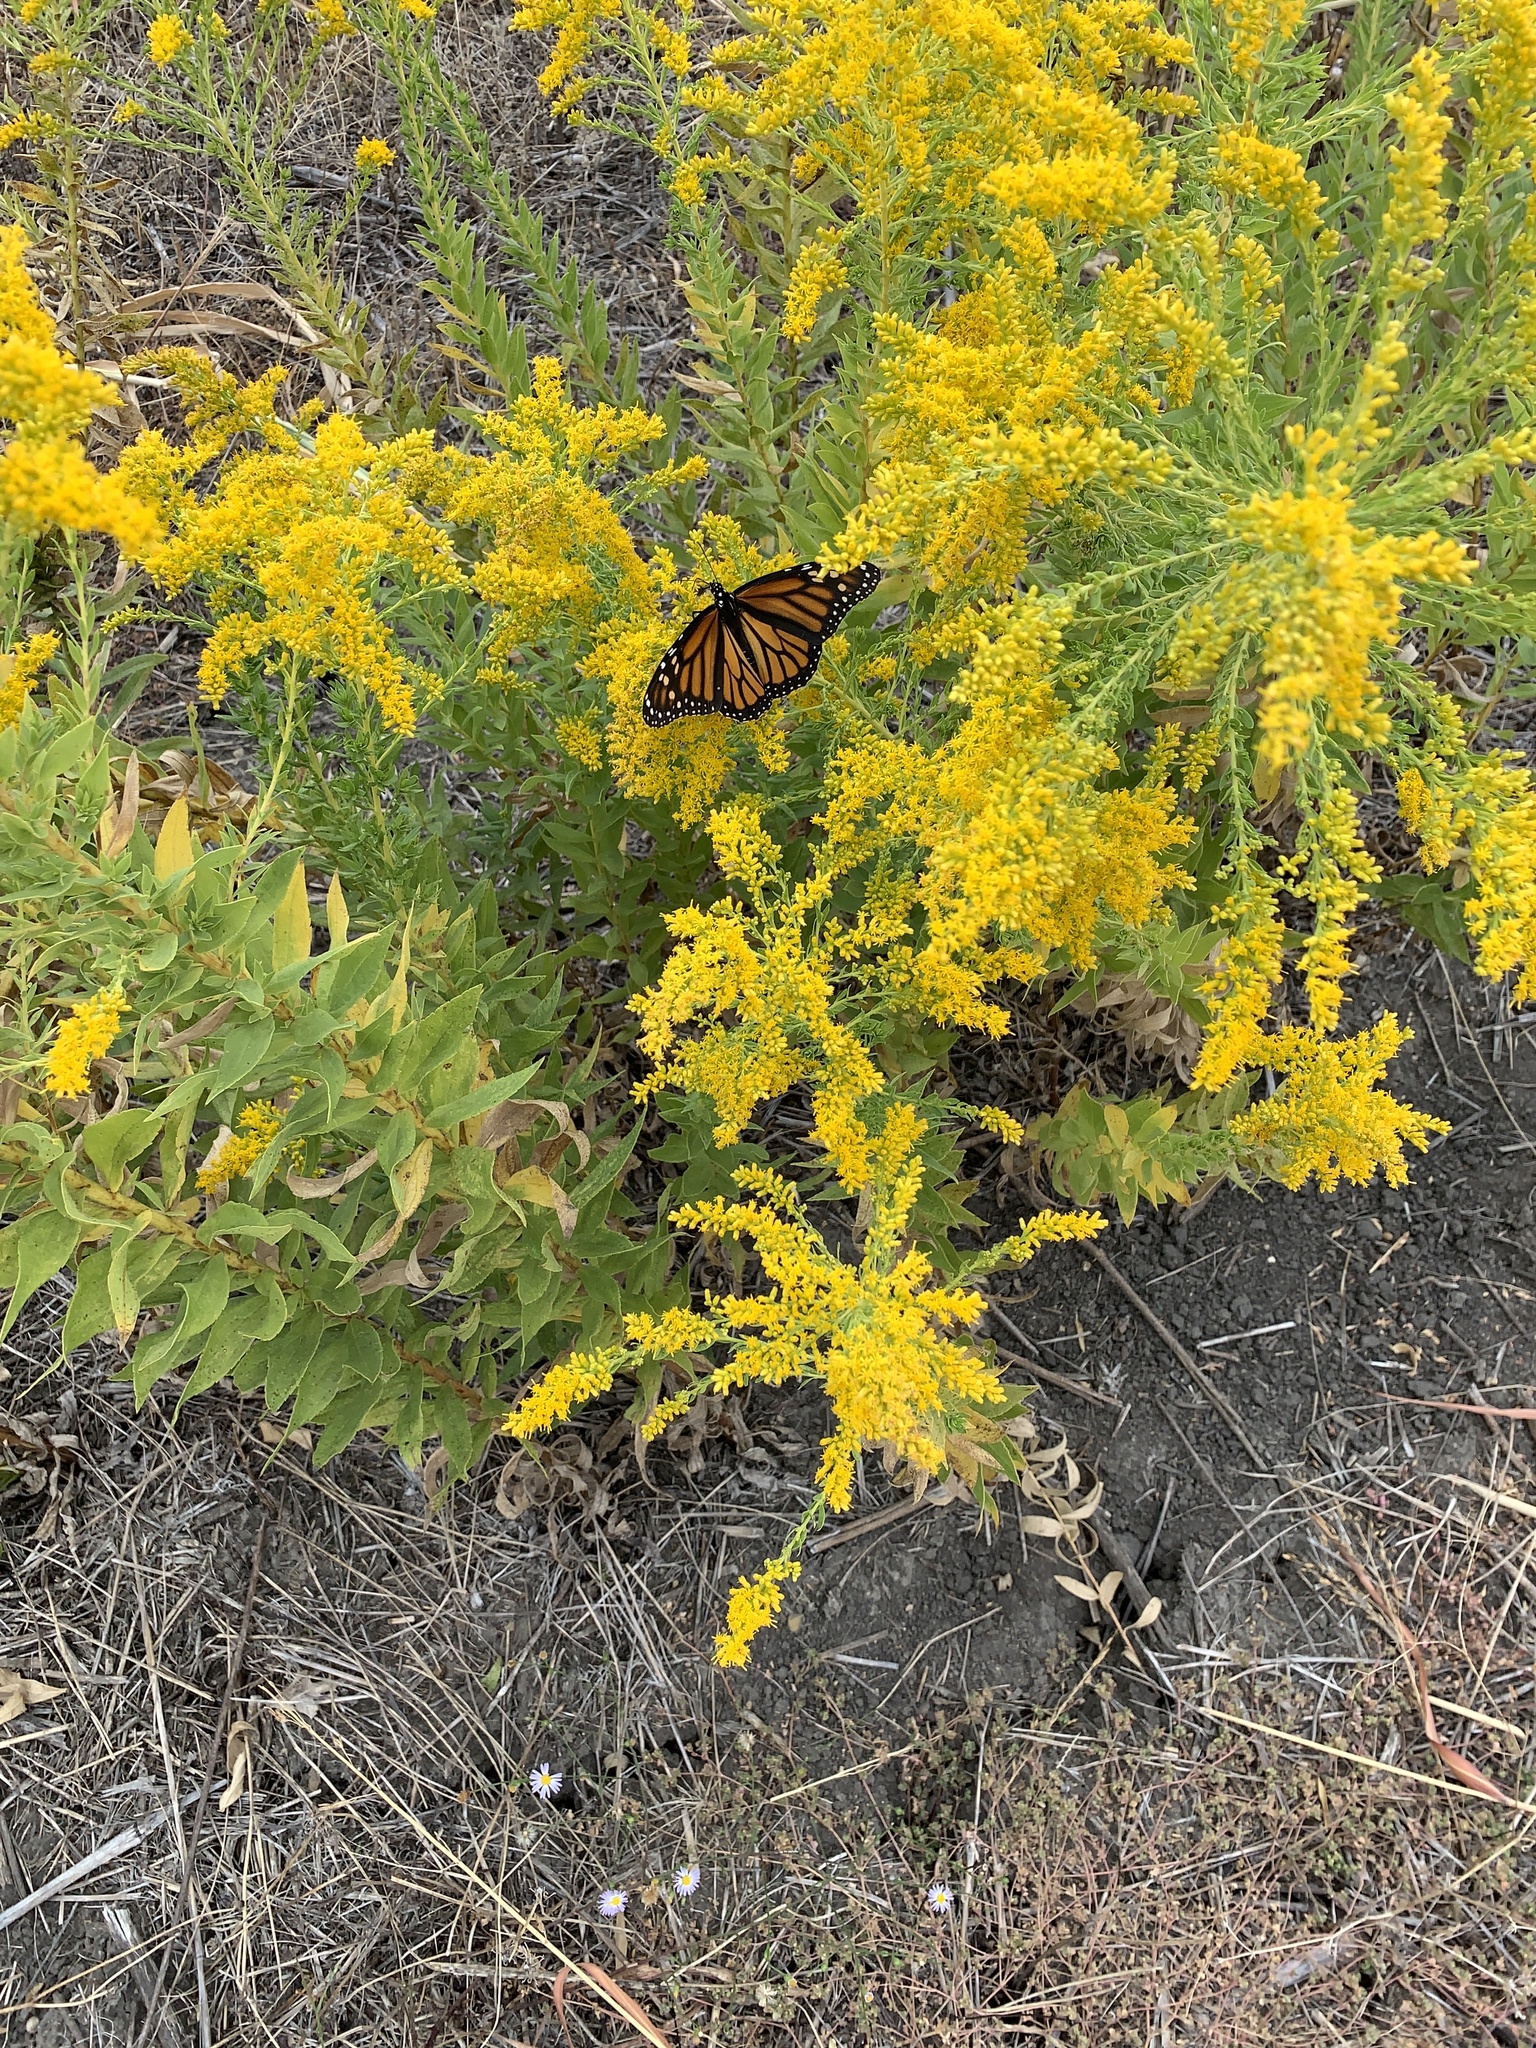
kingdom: Animalia
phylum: Arthropoda
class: Insecta
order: Lepidoptera
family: Nymphalidae
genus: Danaus
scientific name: Danaus plexippus
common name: Monarch
